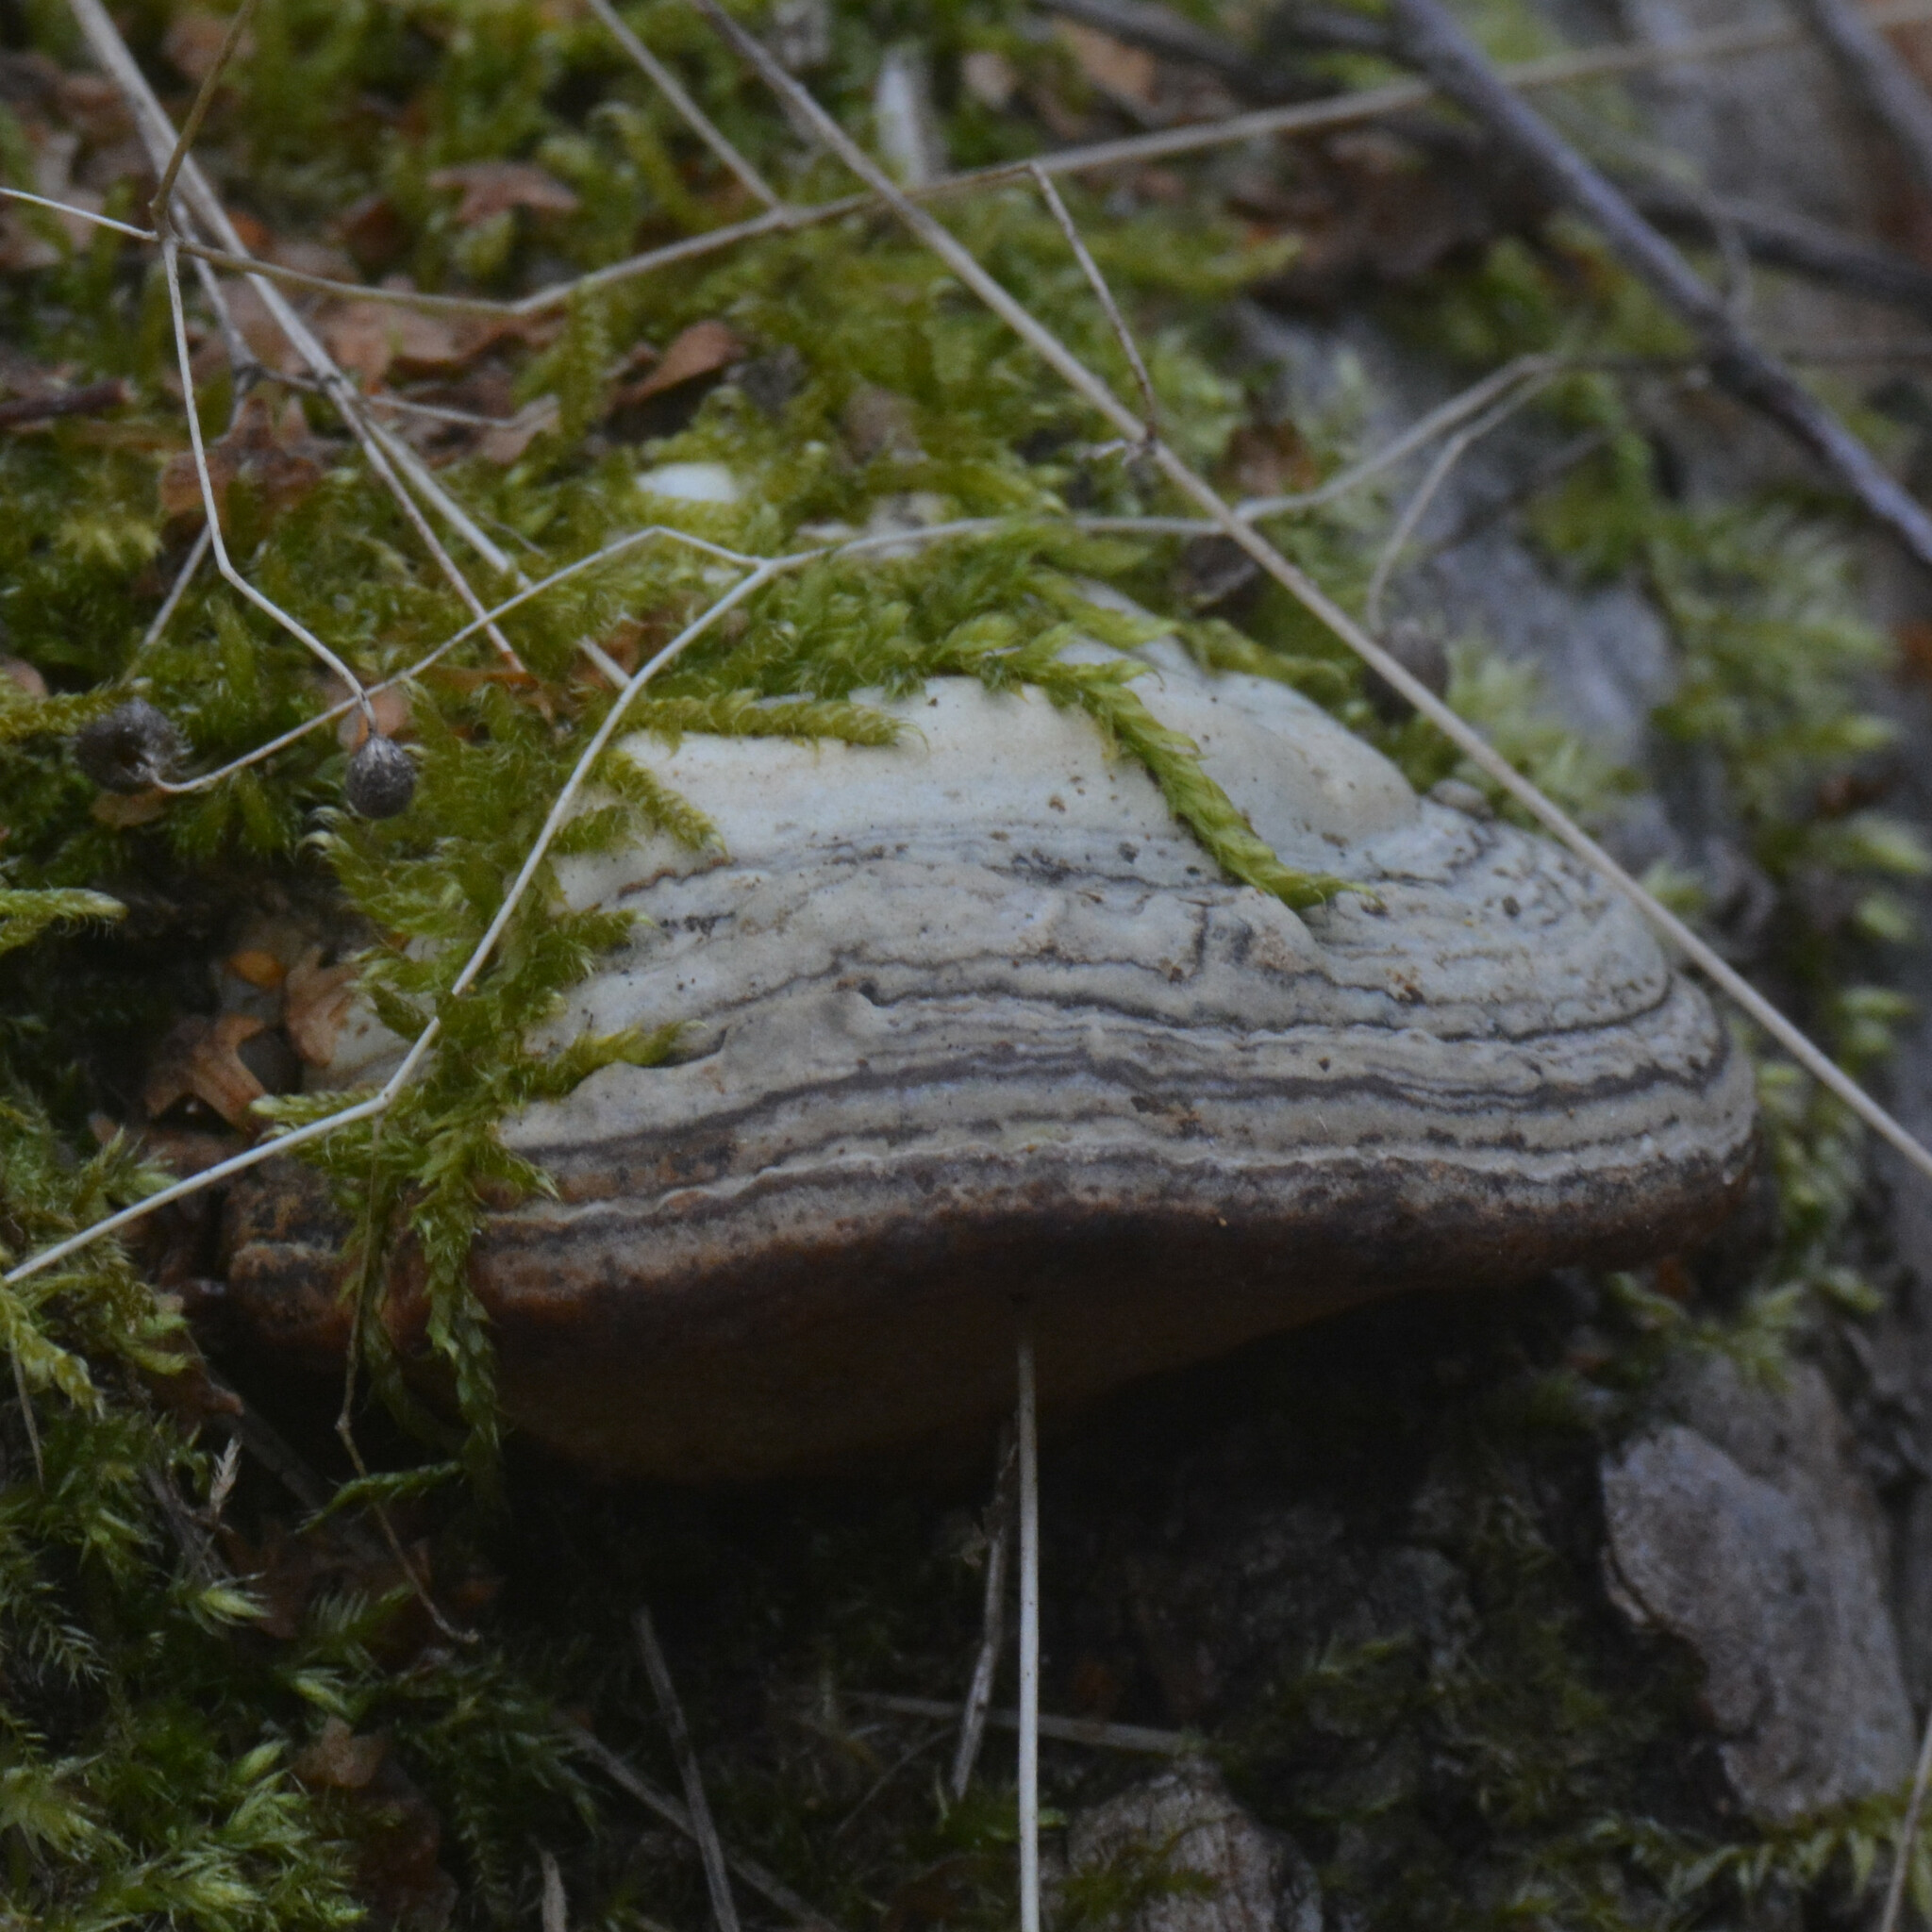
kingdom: Fungi
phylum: Basidiomycota
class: Agaricomycetes
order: Polyporales
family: Polyporaceae
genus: Fomes
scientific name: Fomes fomentarius
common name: Hoof fungus
